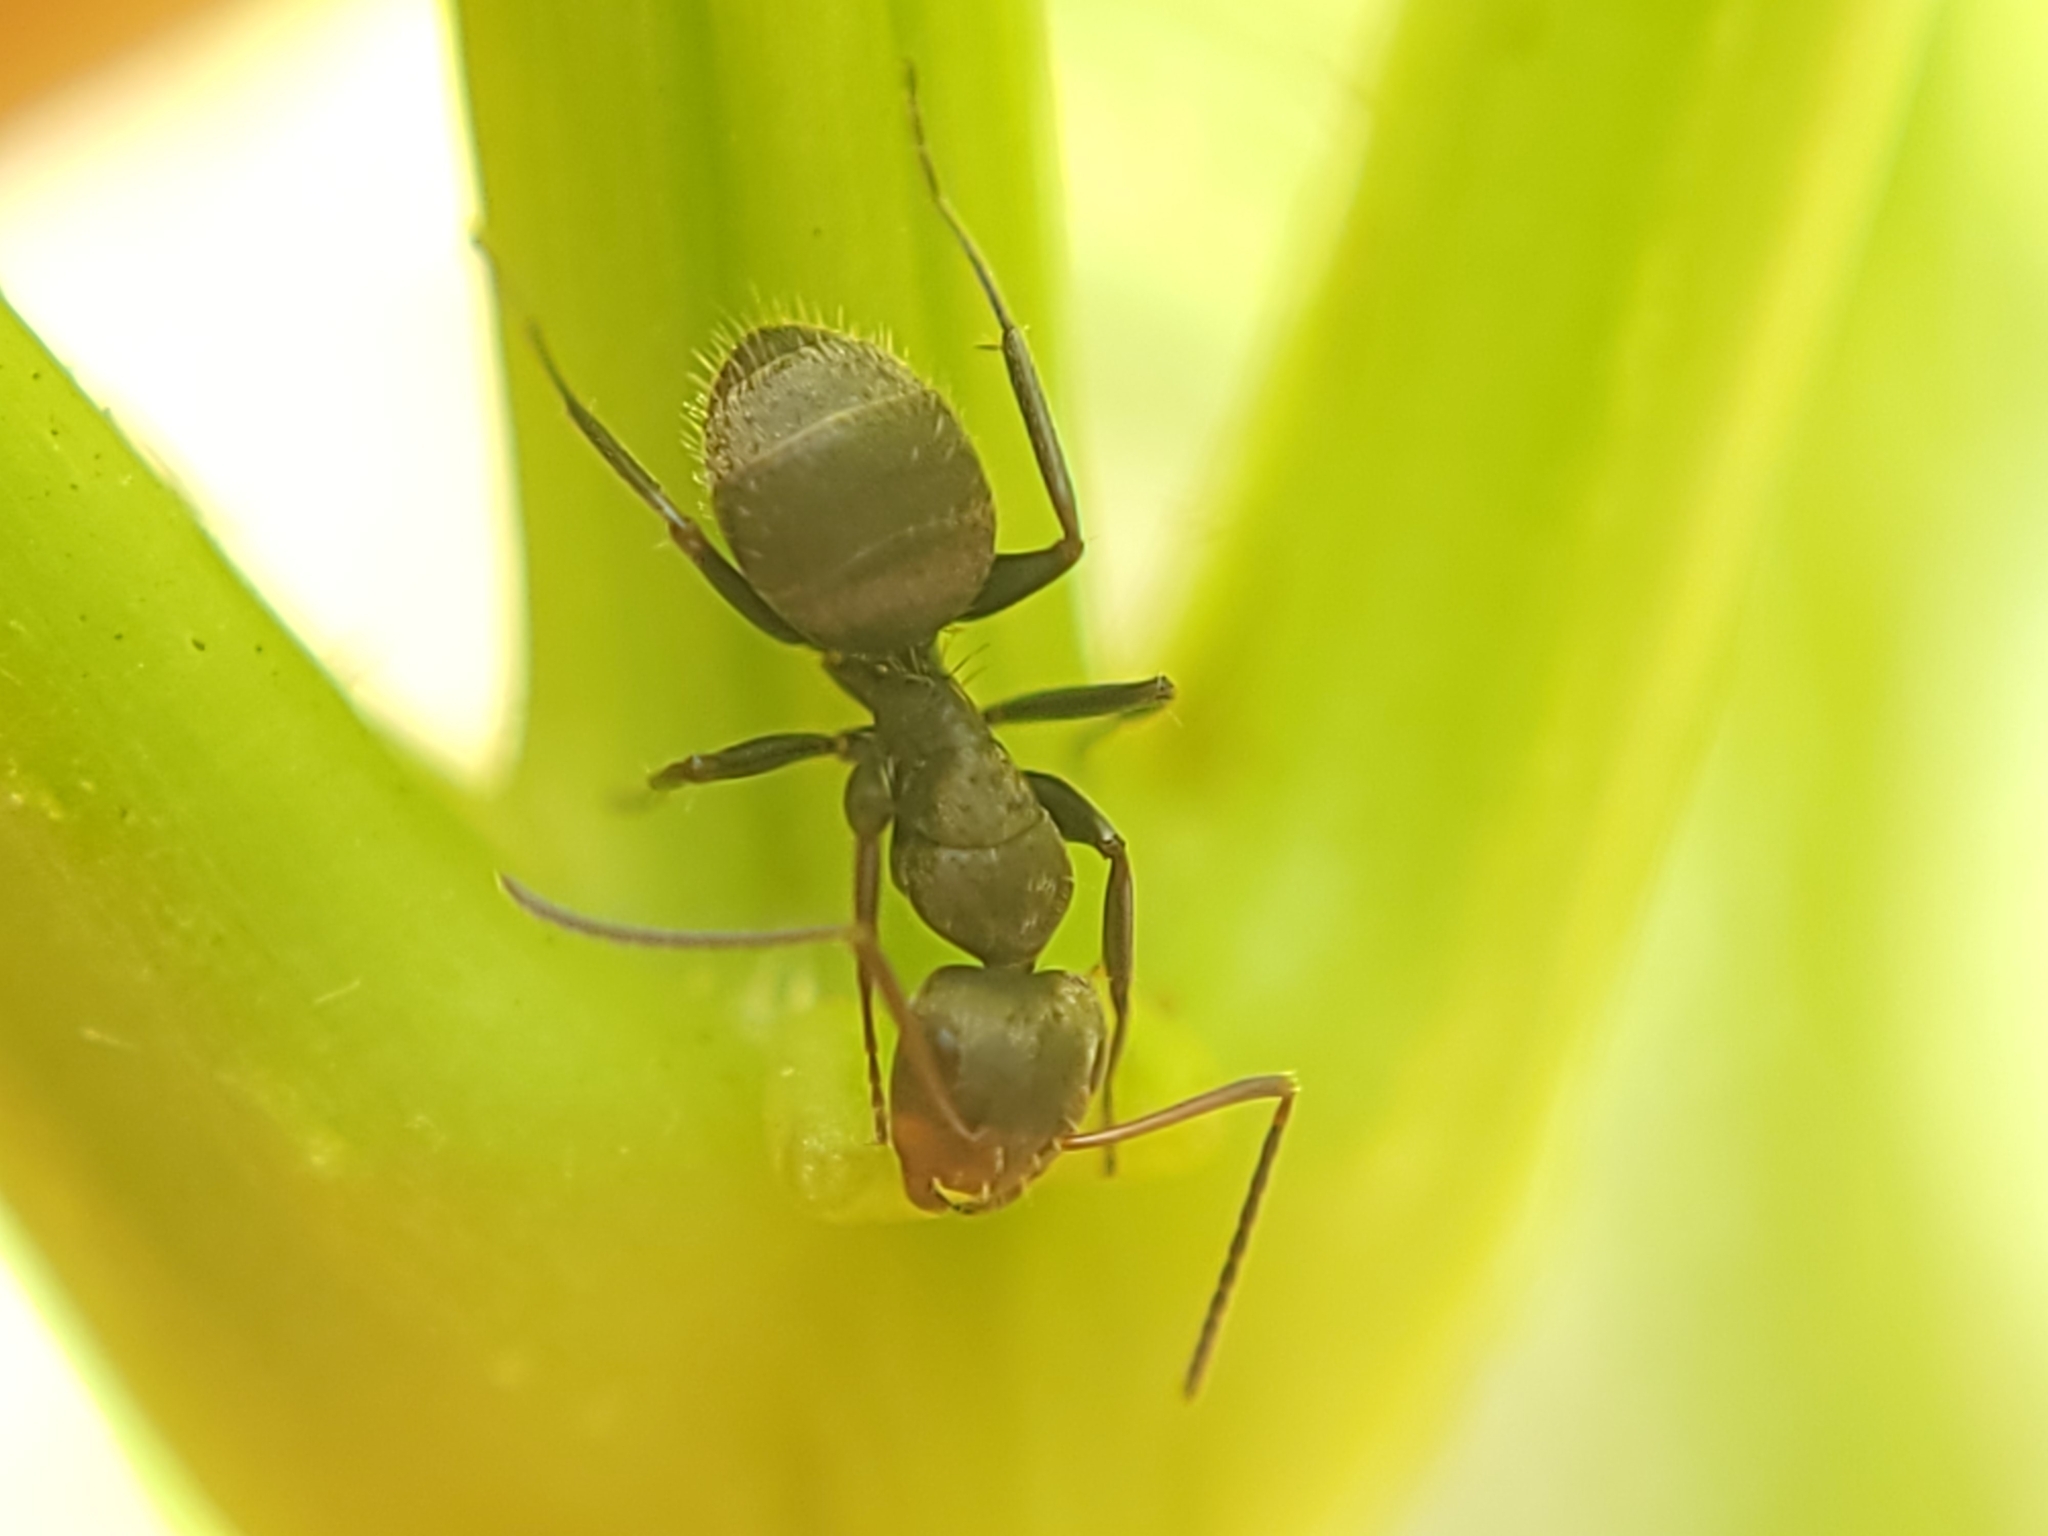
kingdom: Animalia
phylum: Arthropoda
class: Insecta
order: Hymenoptera
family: Formicidae
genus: Camponotus
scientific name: Camponotus novogranadensis
